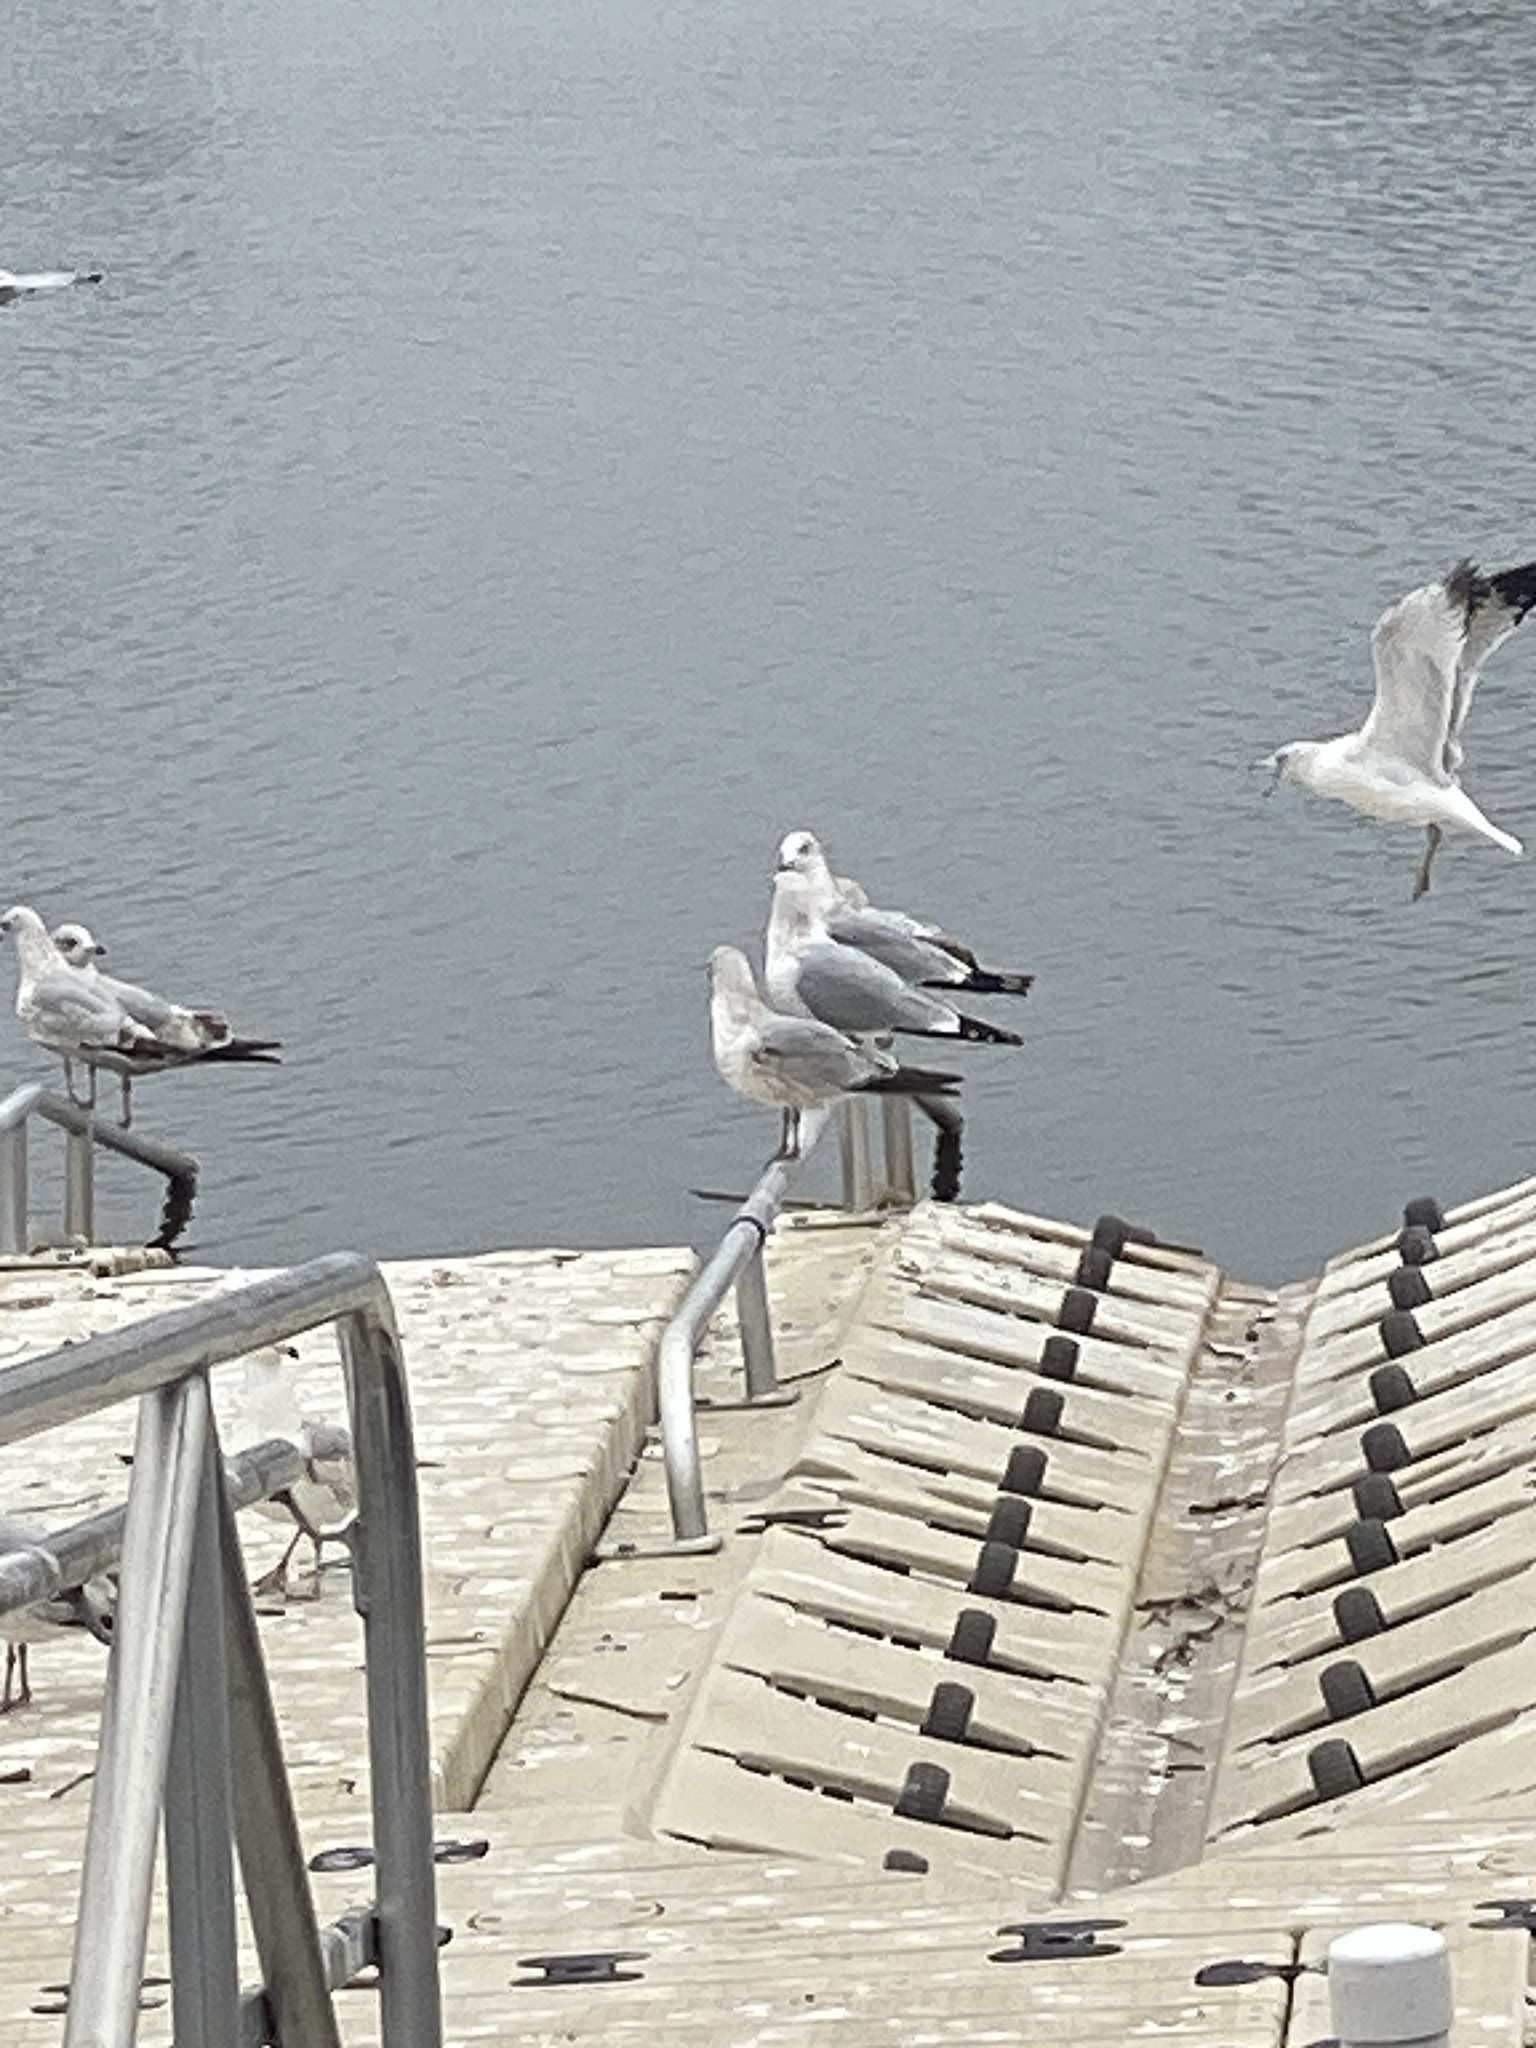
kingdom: Animalia
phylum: Chordata
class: Aves
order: Charadriiformes
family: Laridae
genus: Larus
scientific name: Larus delawarensis
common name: Ring-billed gull
